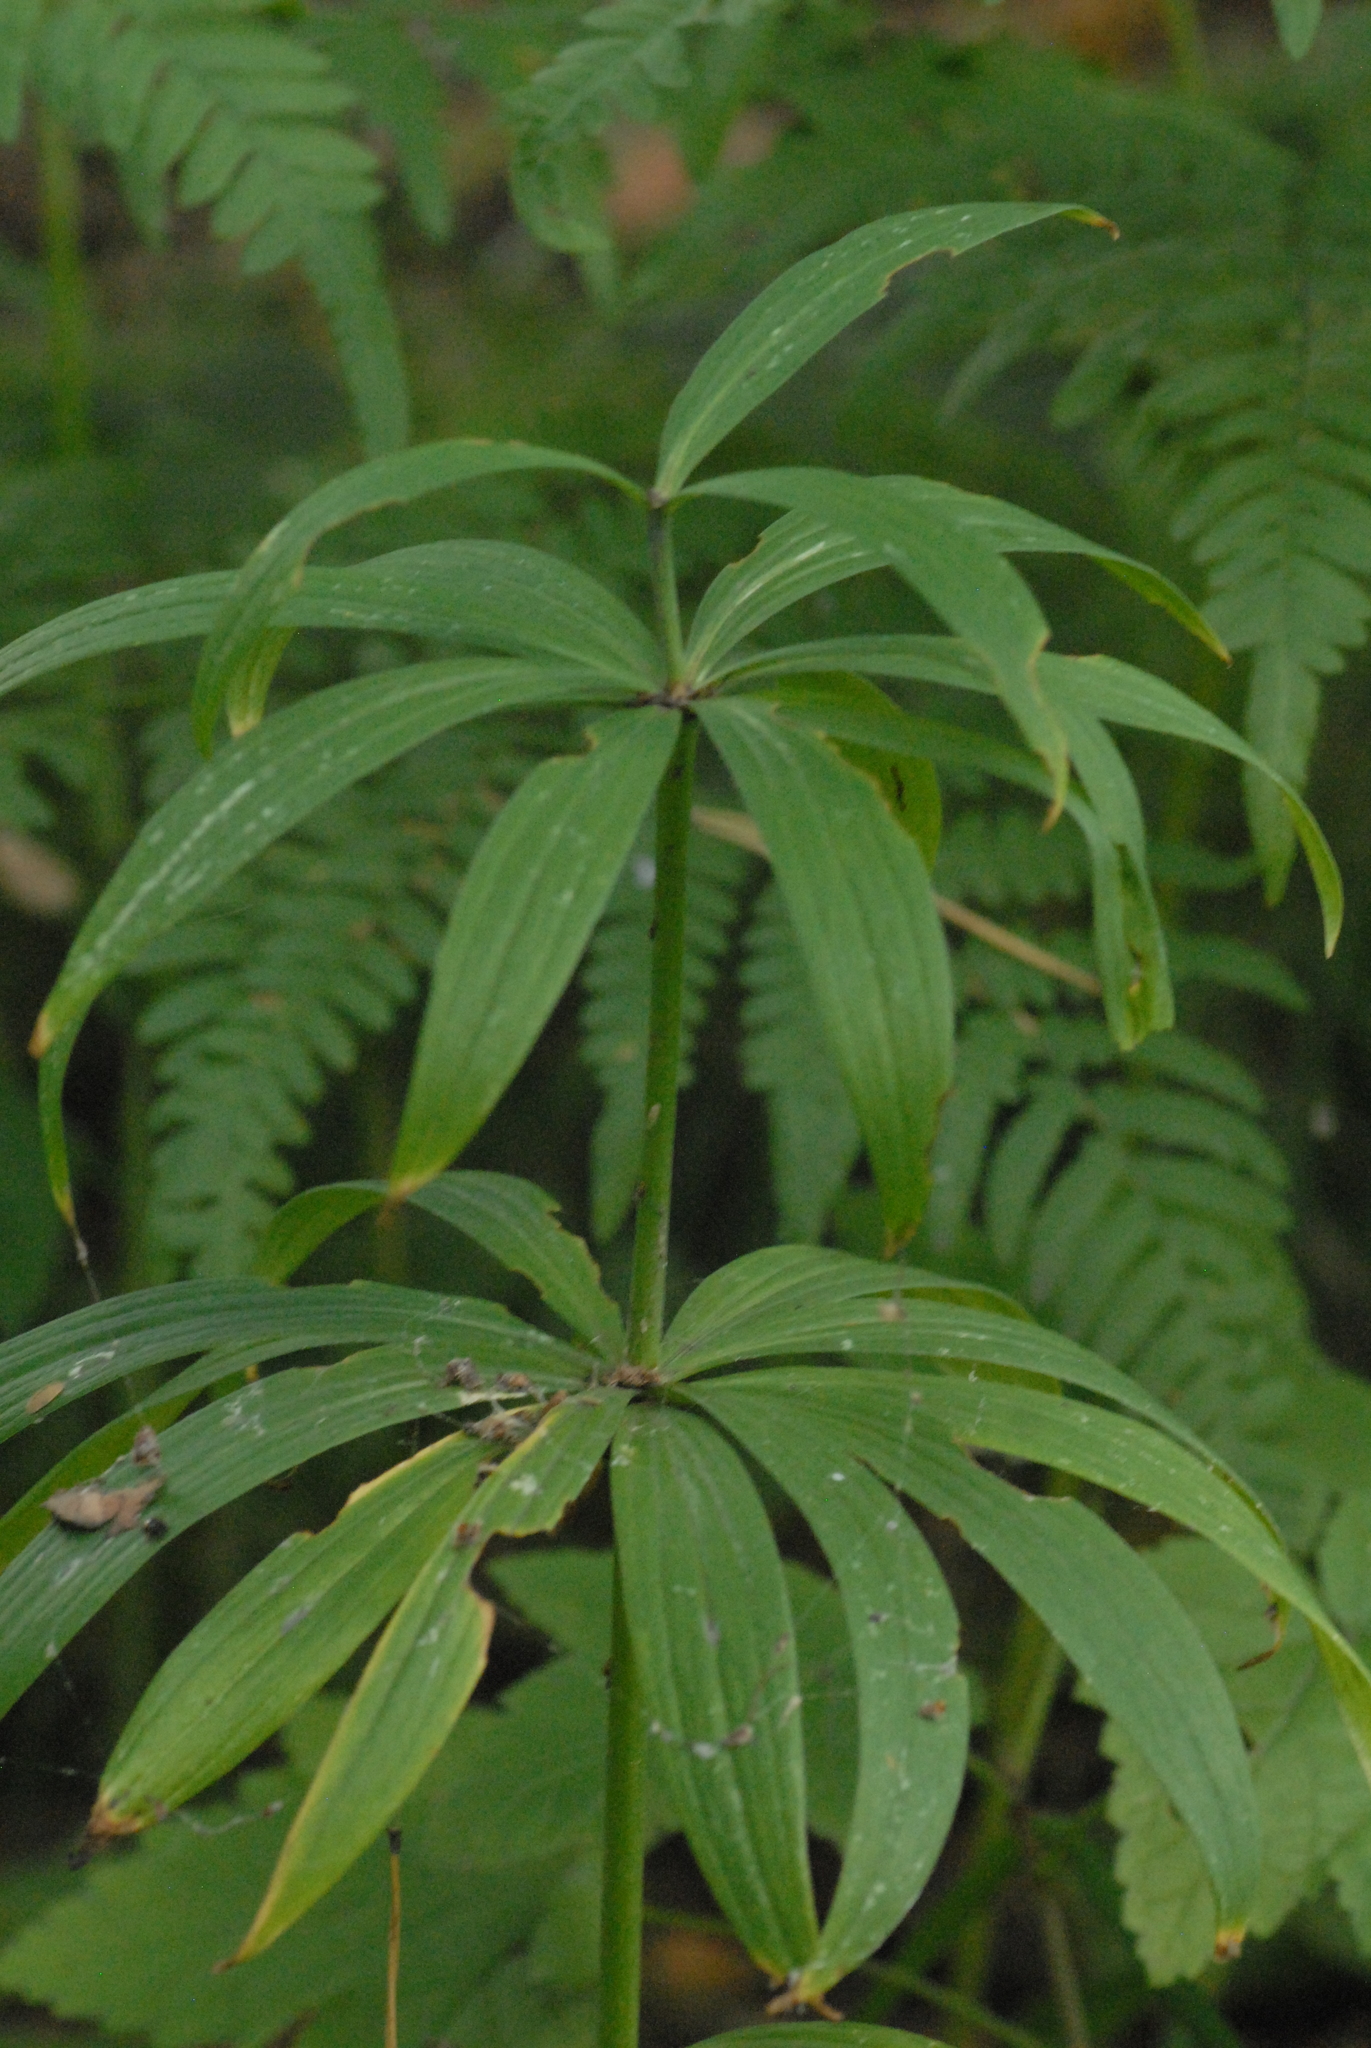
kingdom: Plantae
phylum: Tracheophyta
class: Liliopsida
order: Liliales
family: Liliaceae
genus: Lilium
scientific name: Lilium martagon
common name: Martagon lily
